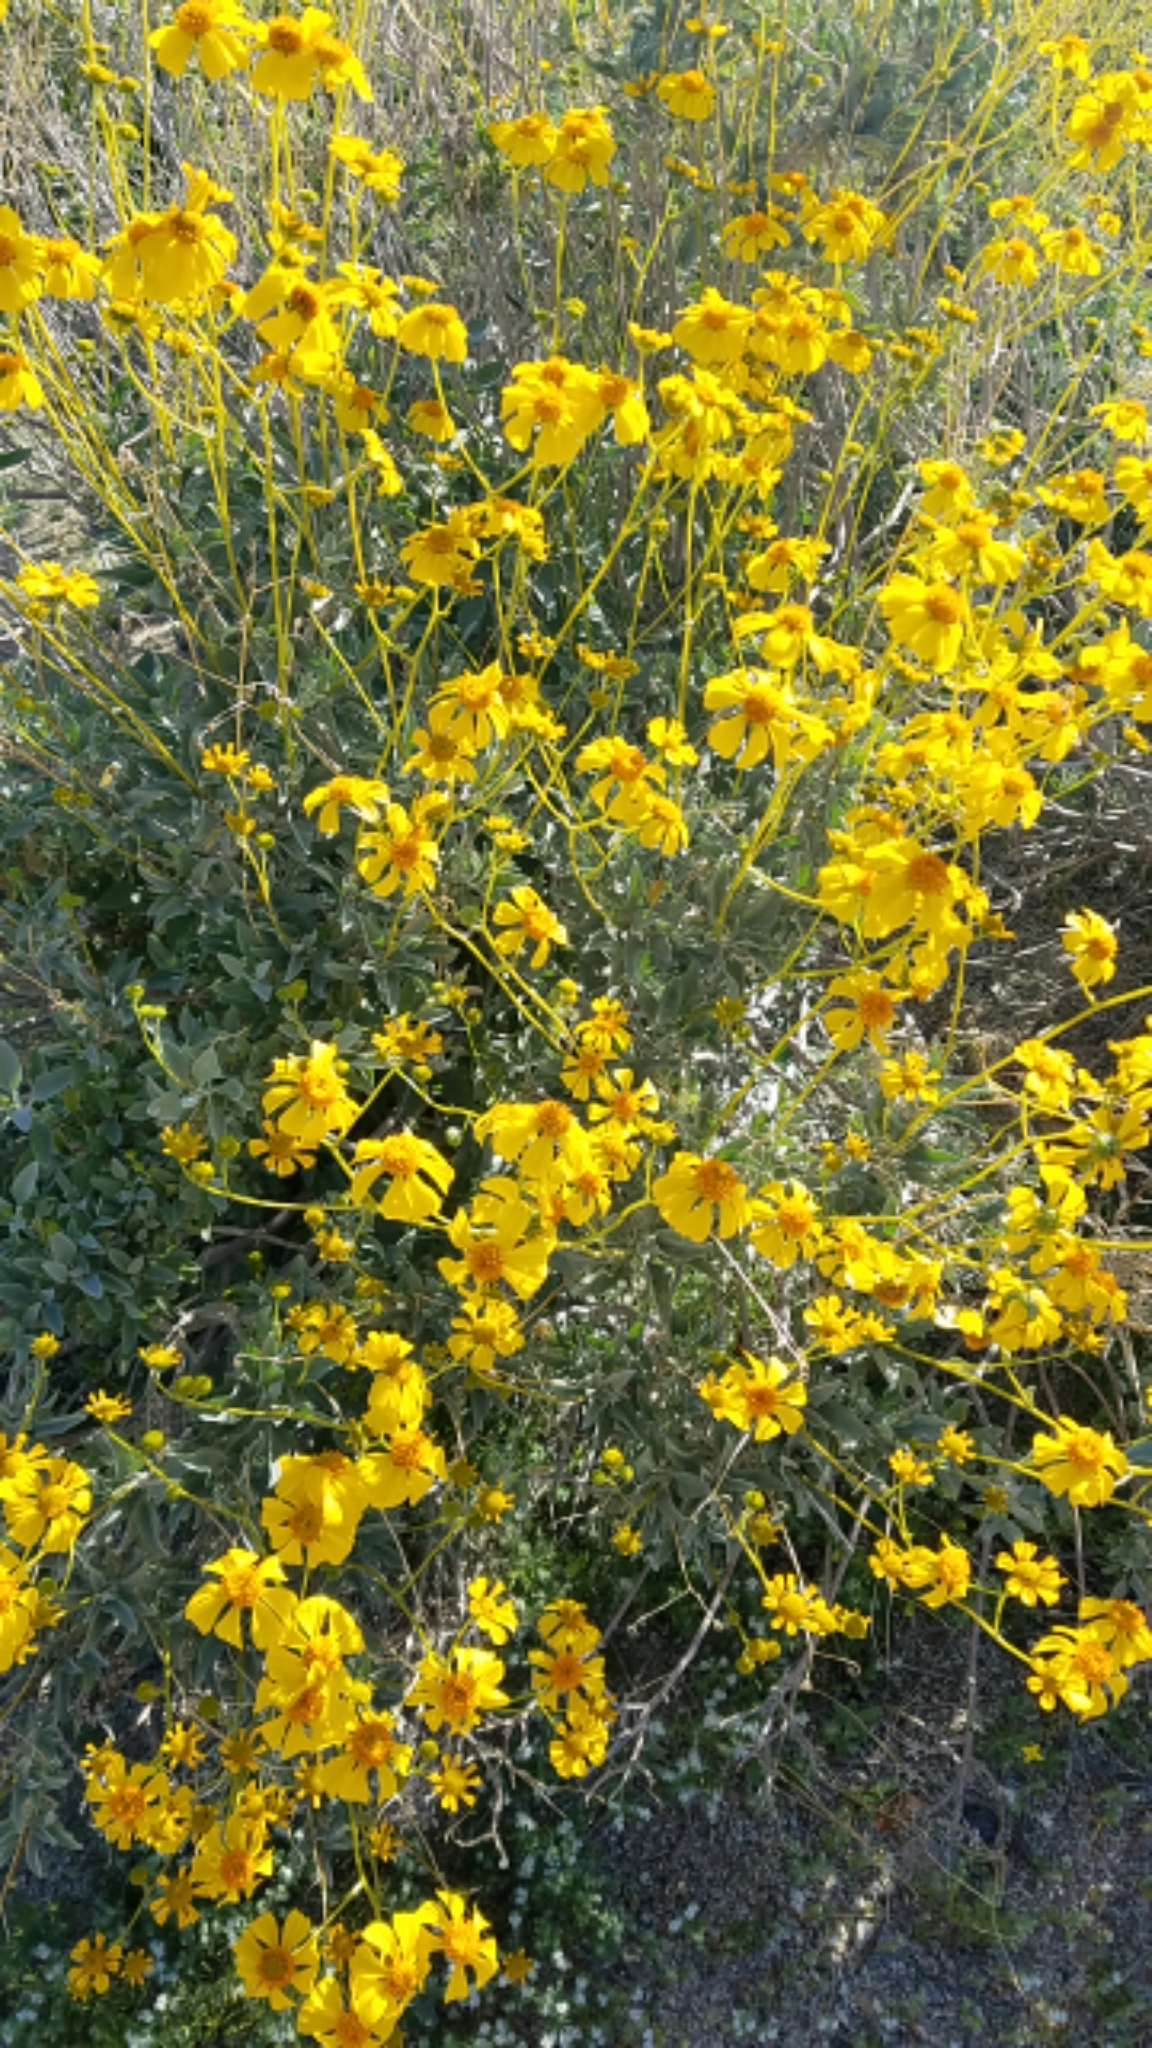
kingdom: Plantae
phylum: Tracheophyta
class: Magnoliopsida
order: Asterales
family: Asteraceae
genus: Encelia
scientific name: Encelia farinosa
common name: Brittlebush
